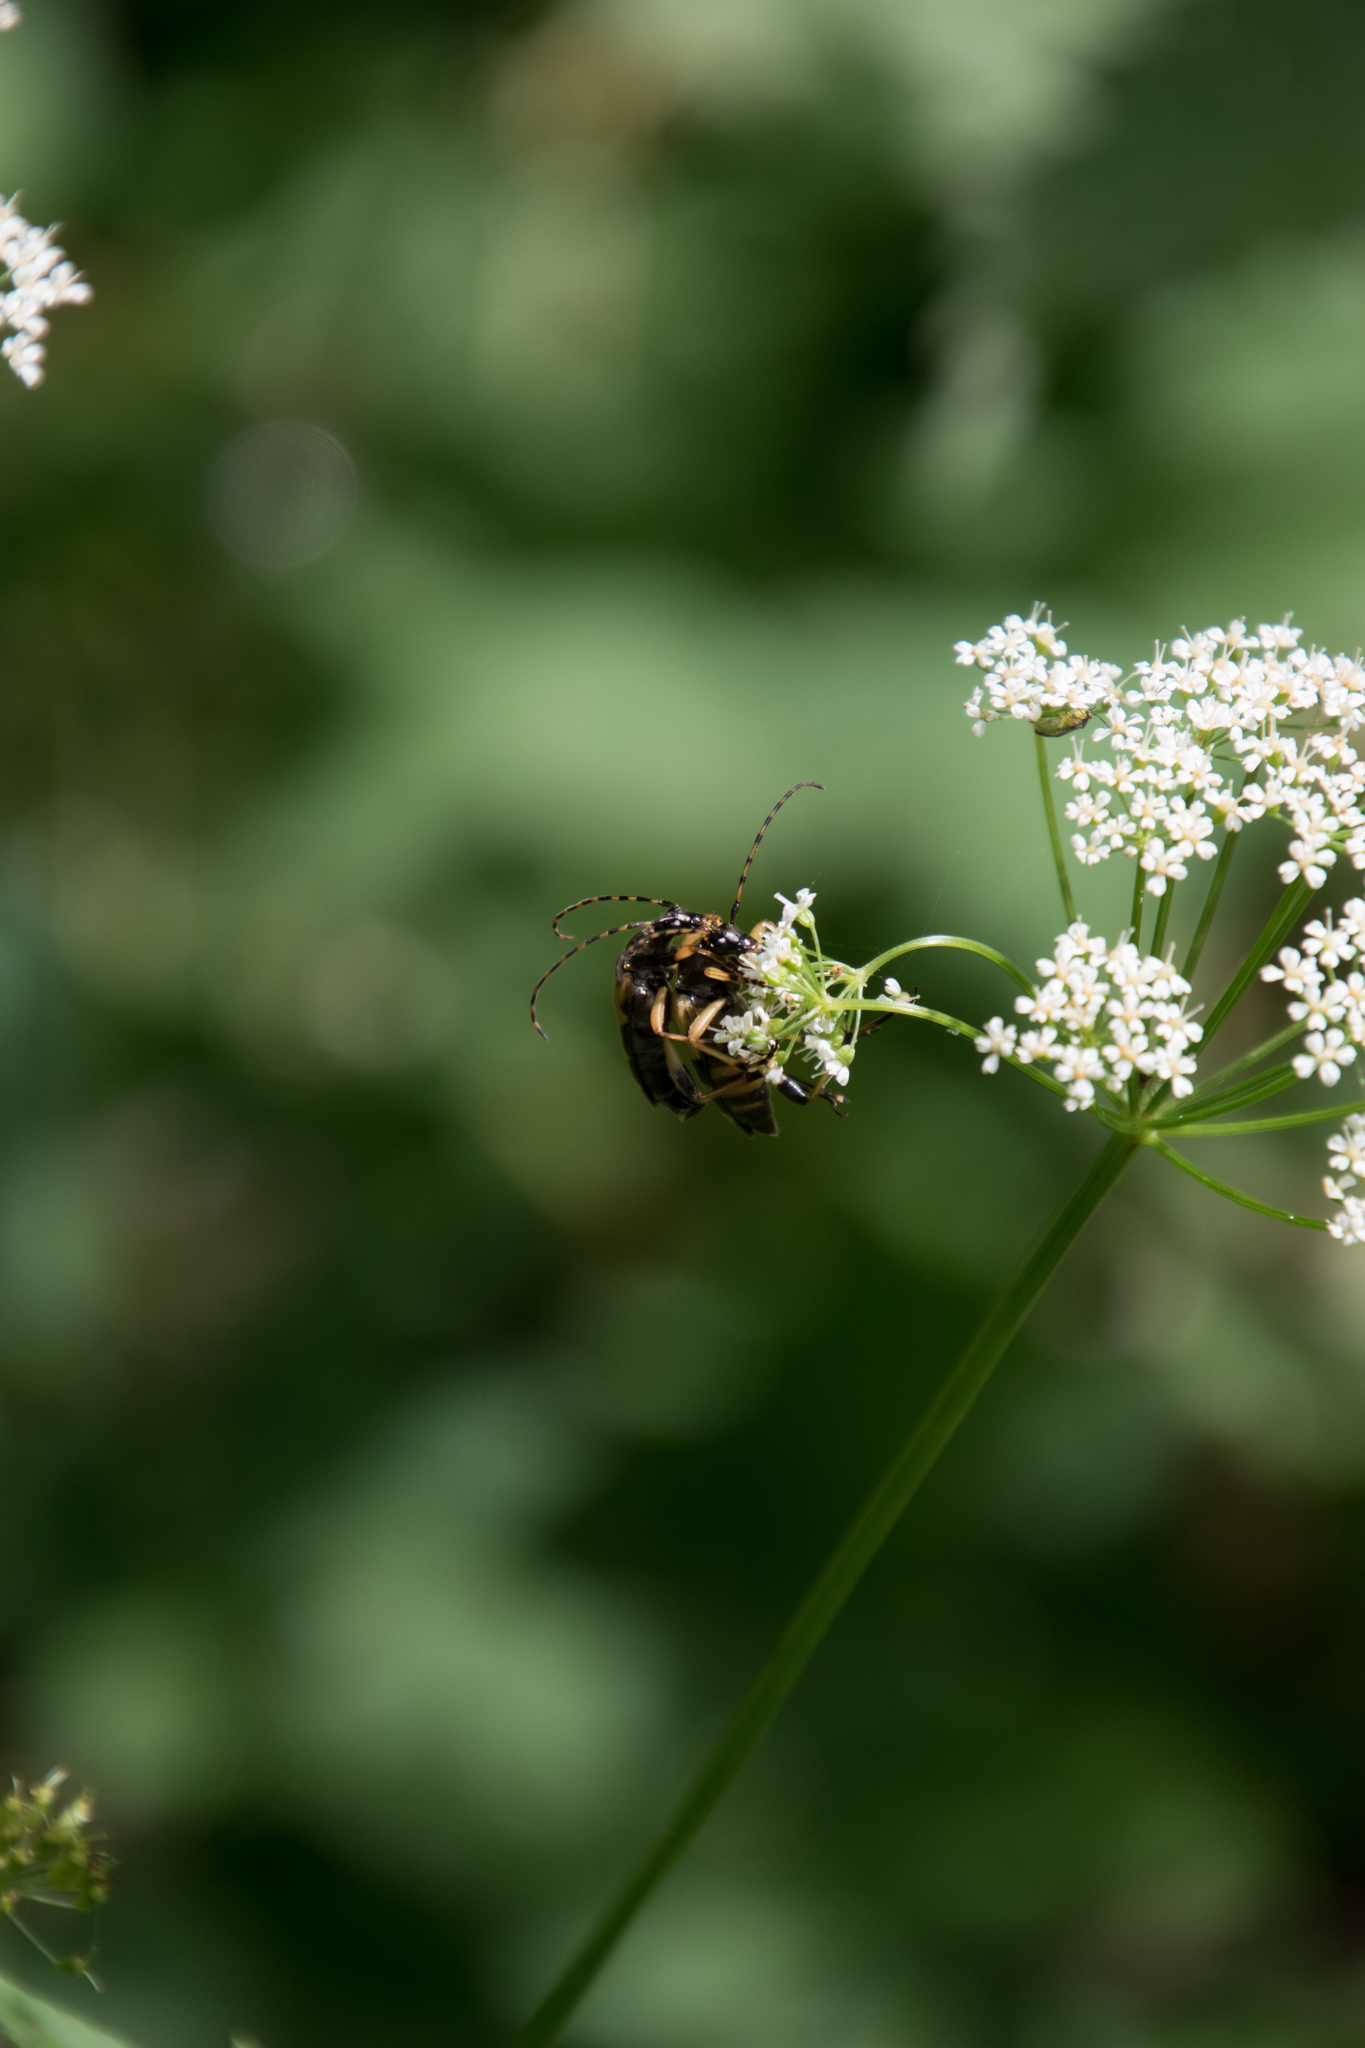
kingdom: Animalia
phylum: Arthropoda
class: Insecta
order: Coleoptera
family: Cerambycidae
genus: Rutpela
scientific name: Rutpela maculata
